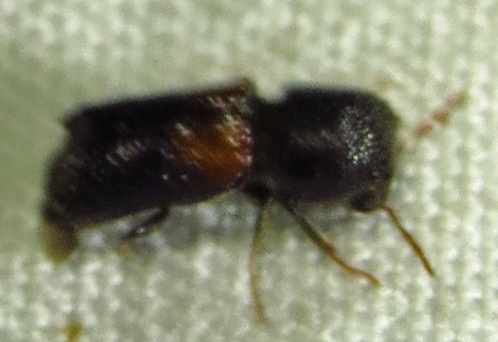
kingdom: Animalia
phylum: Arthropoda
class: Insecta
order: Coleoptera
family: Bostrichidae
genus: Xylobiops
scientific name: Xylobiops basilaris
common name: Red-shouldered bostrichid
